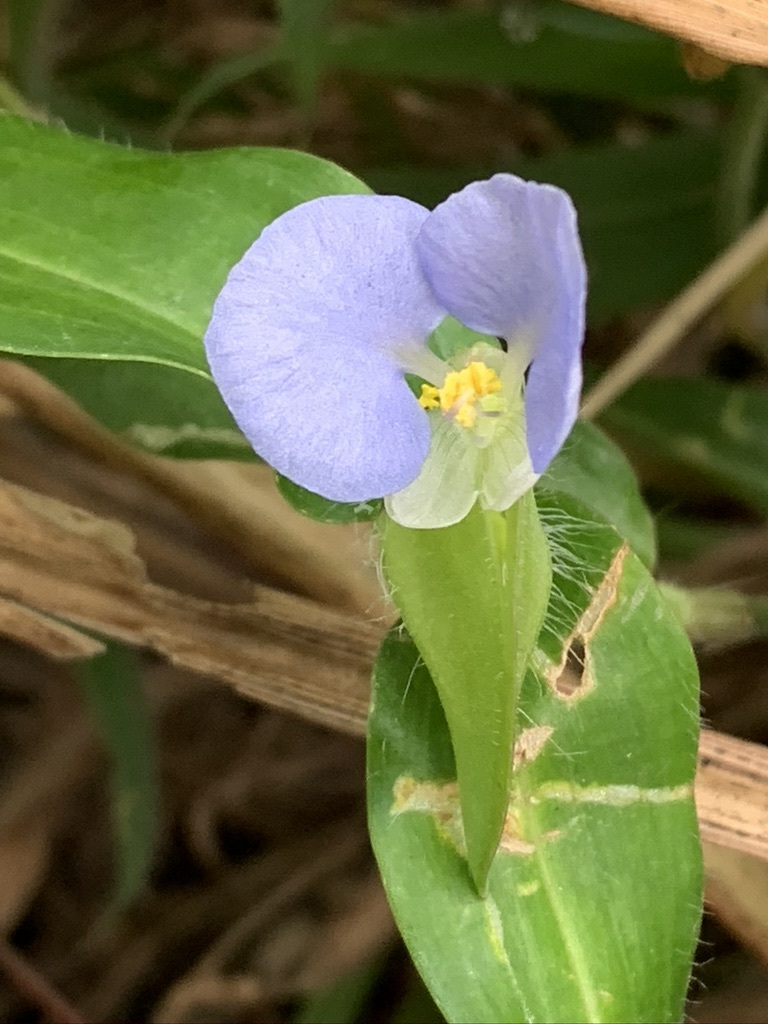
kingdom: Plantae
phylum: Tracheophyta
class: Liliopsida
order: Commelinales
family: Commelinaceae
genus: Commelina
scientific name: Commelina auriculata
